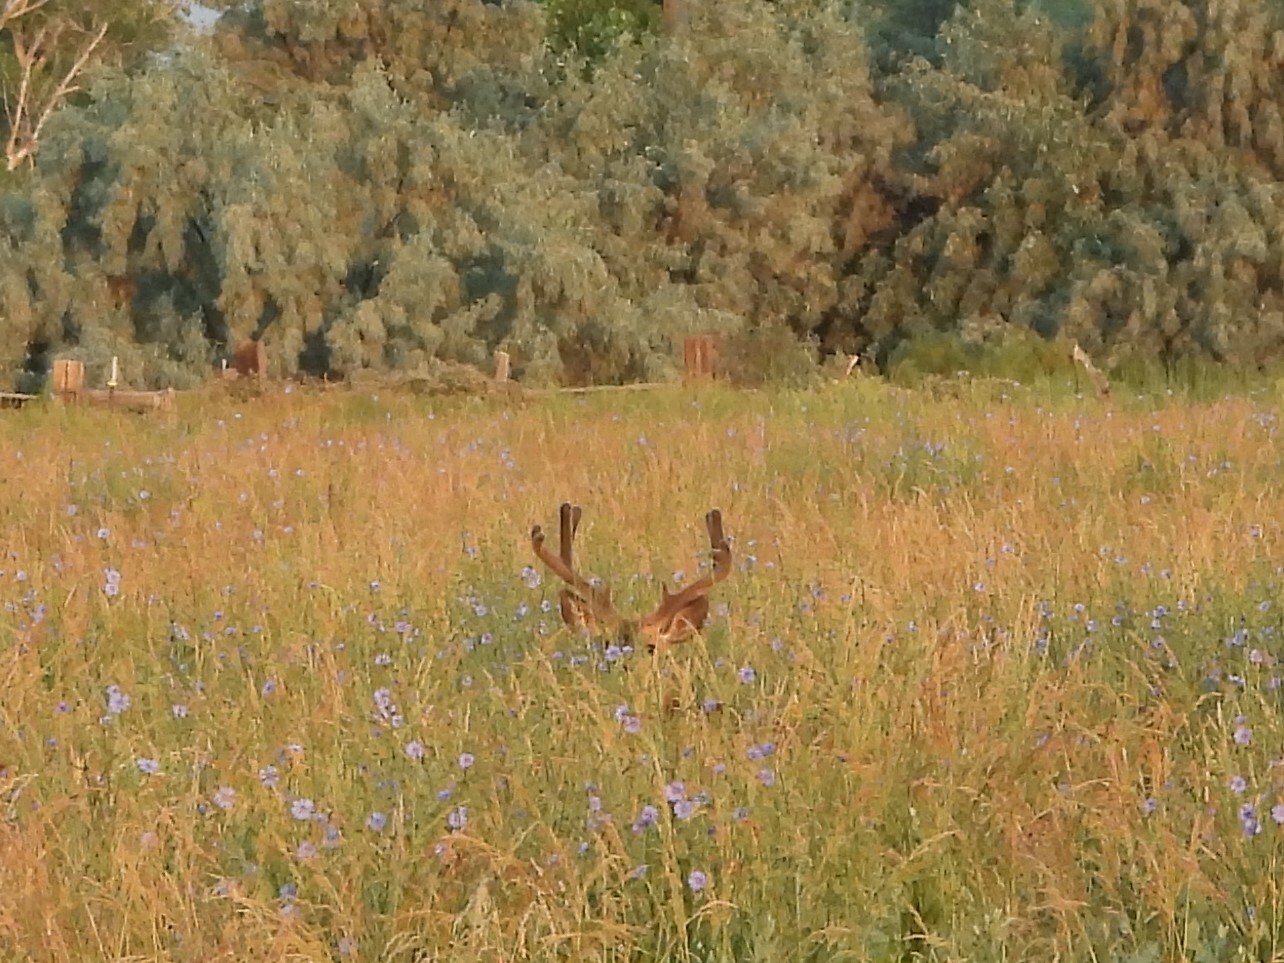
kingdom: Animalia
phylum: Chordata
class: Mammalia
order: Artiodactyla
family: Cervidae
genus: Odocoileus
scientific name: Odocoileus hemionus
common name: Mule deer
